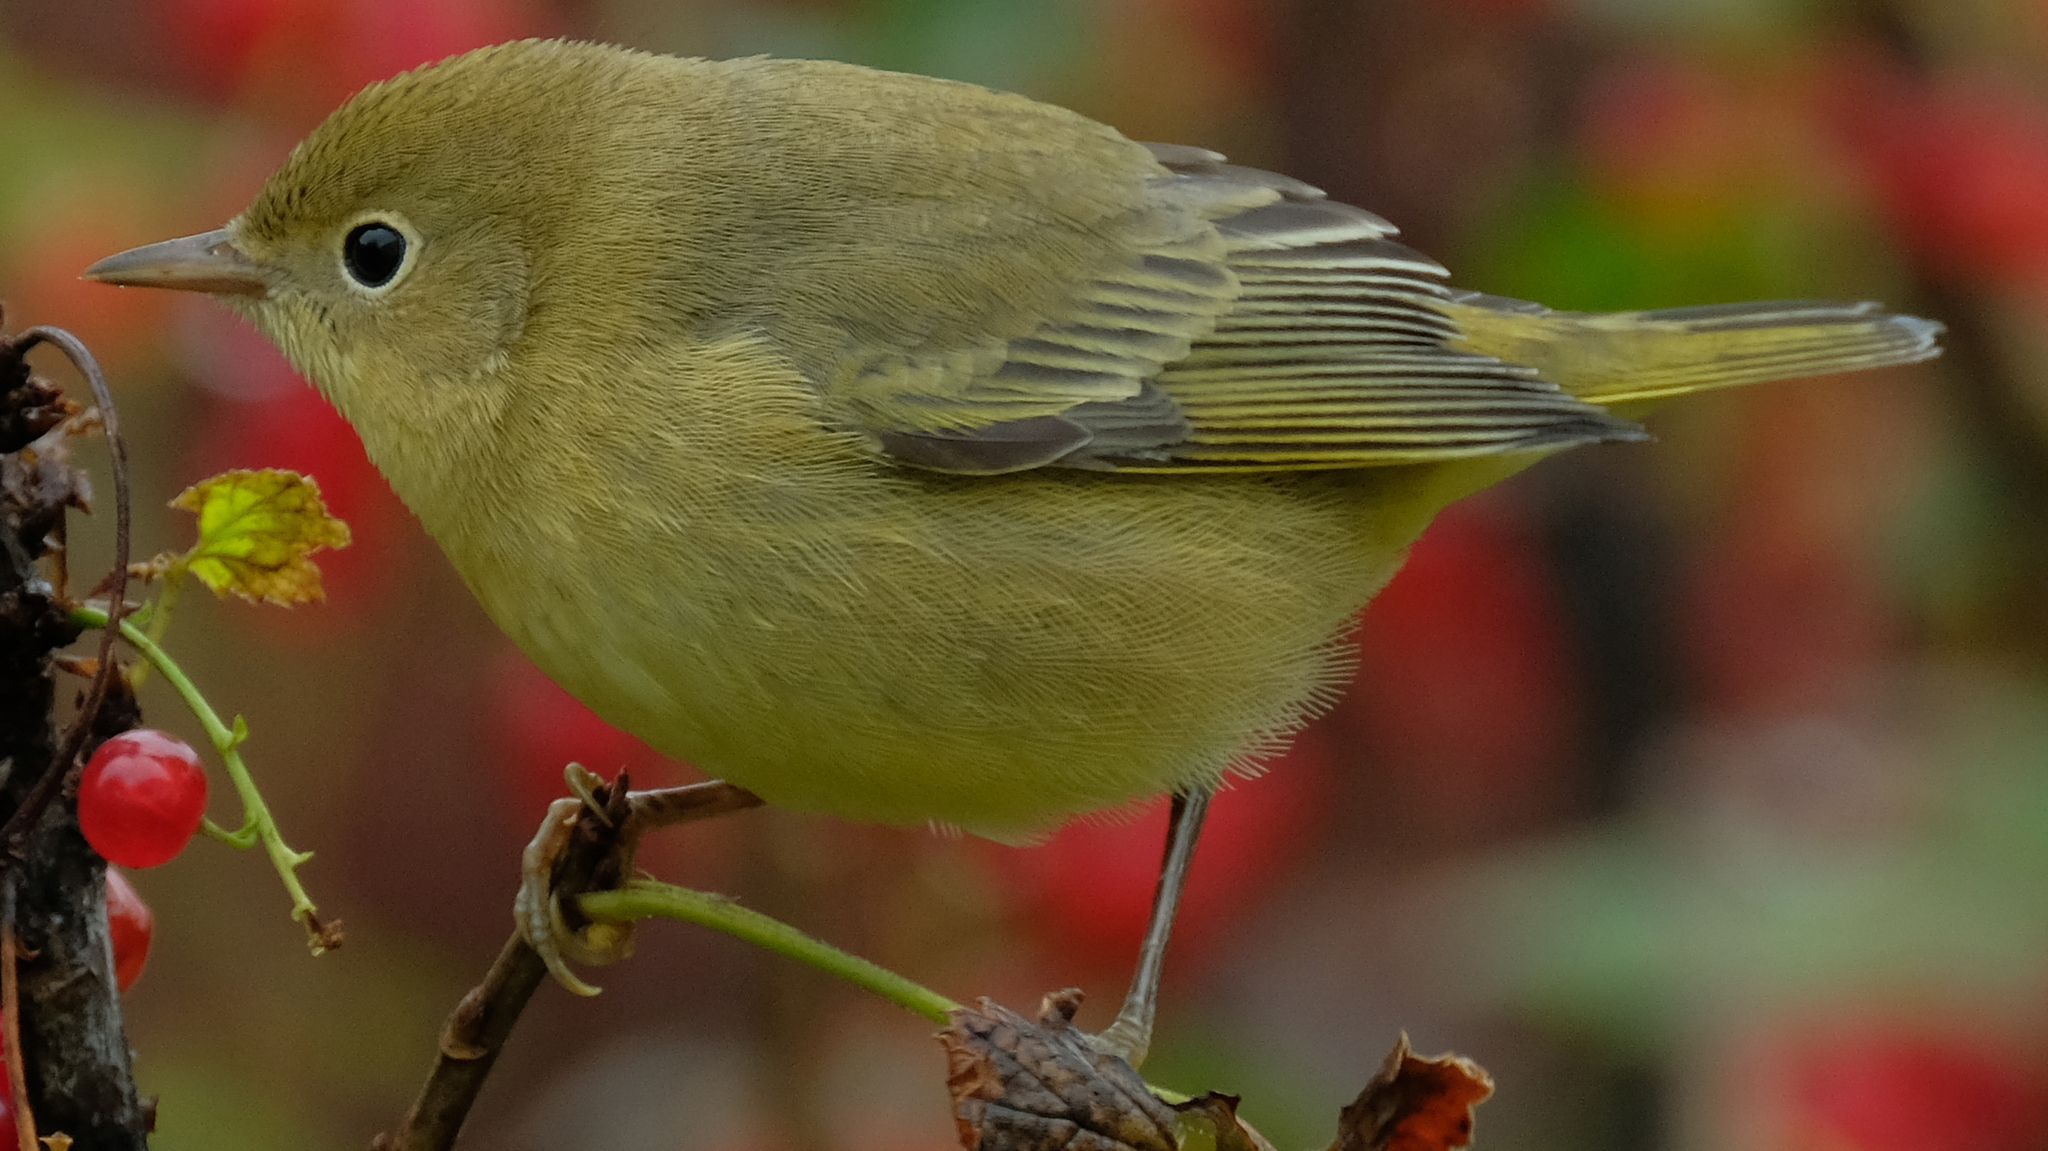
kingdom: Animalia
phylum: Chordata
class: Aves
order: Passeriformes
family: Parulidae
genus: Setophaga
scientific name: Setophaga petechia
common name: Yellow warbler
